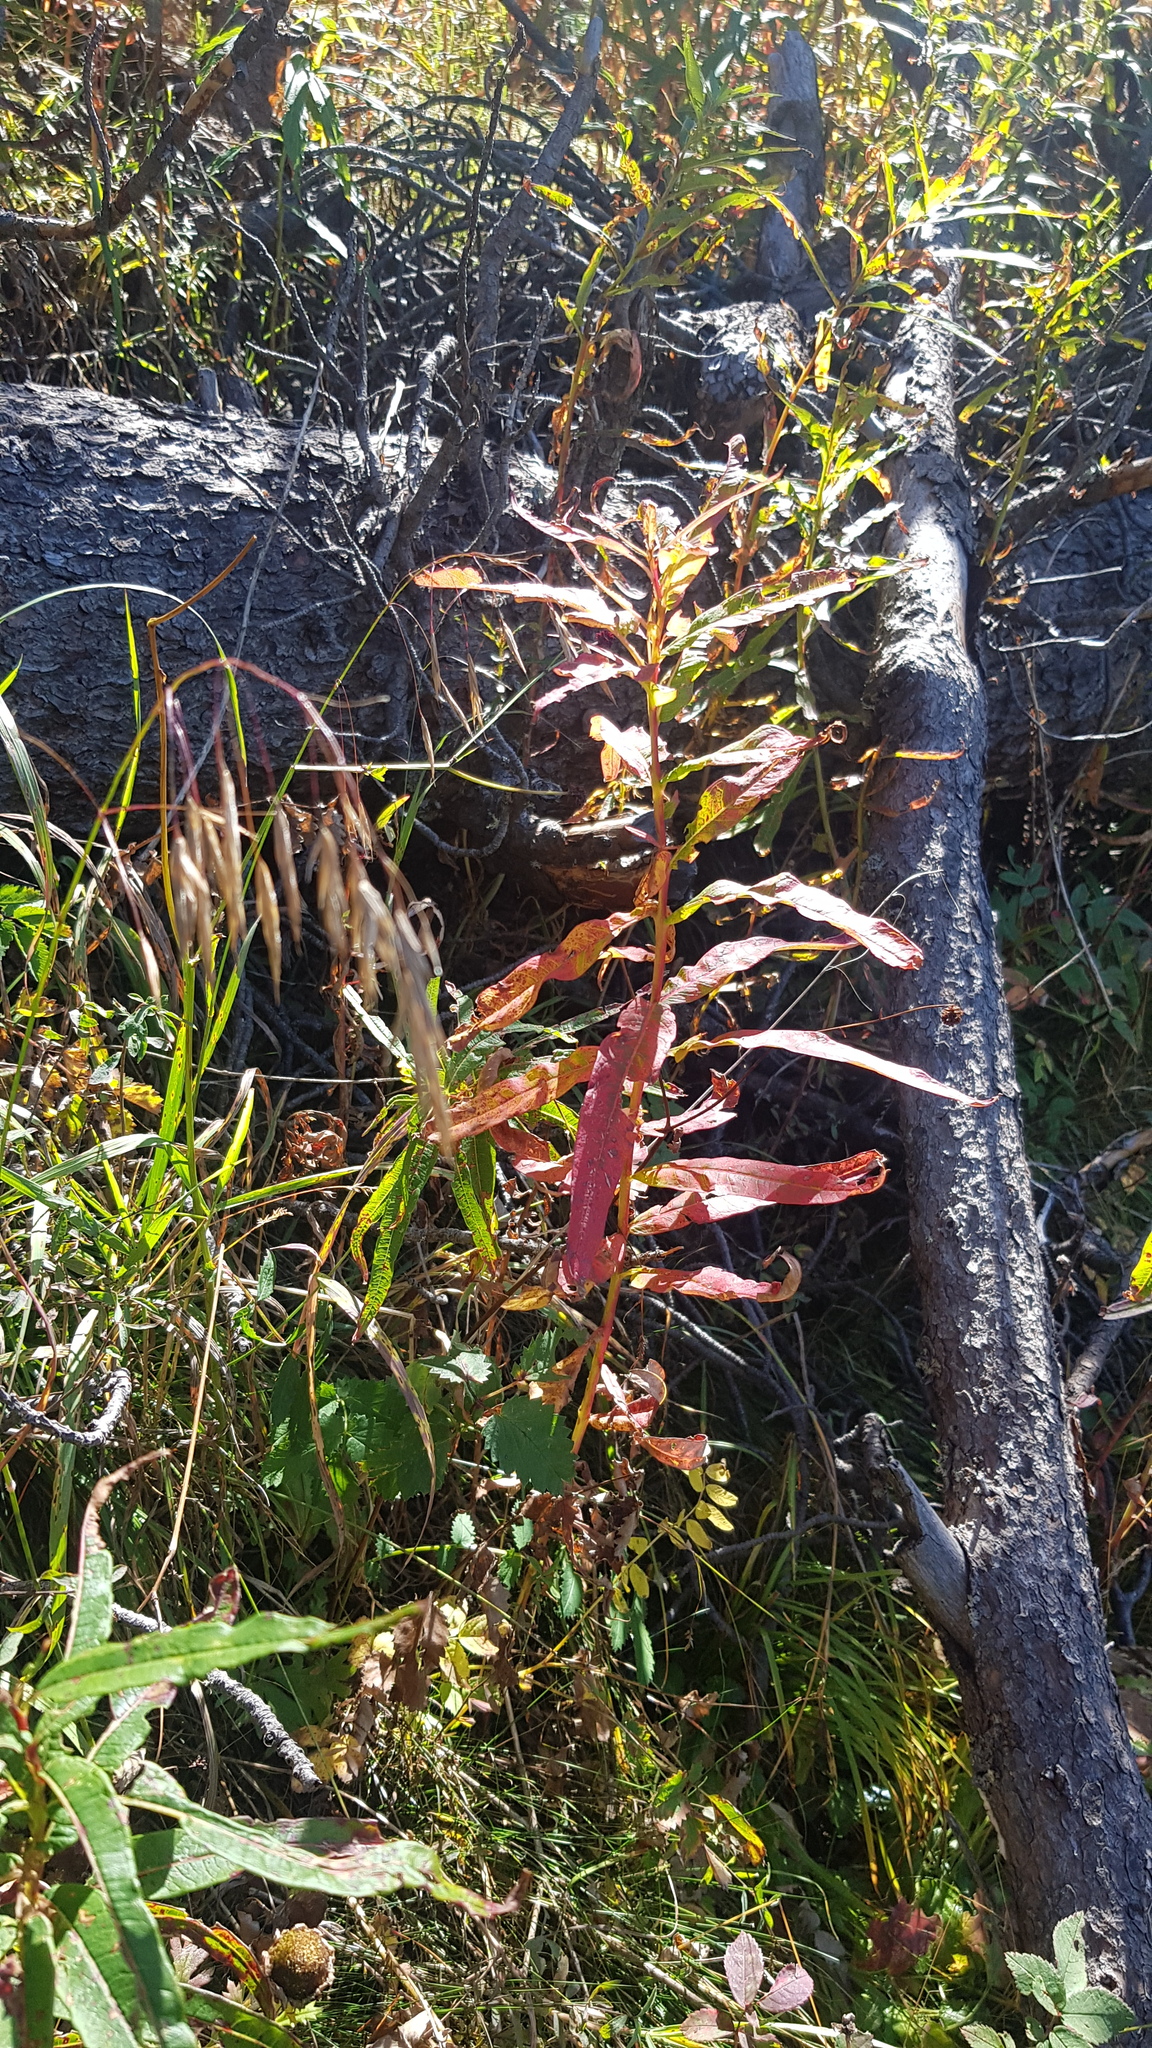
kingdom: Plantae
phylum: Tracheophyta
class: Magnoliopsida
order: Myrtales
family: Onagraceae
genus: Chamaenerion
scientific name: Chamaenerion angustifolium
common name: Fireweed
